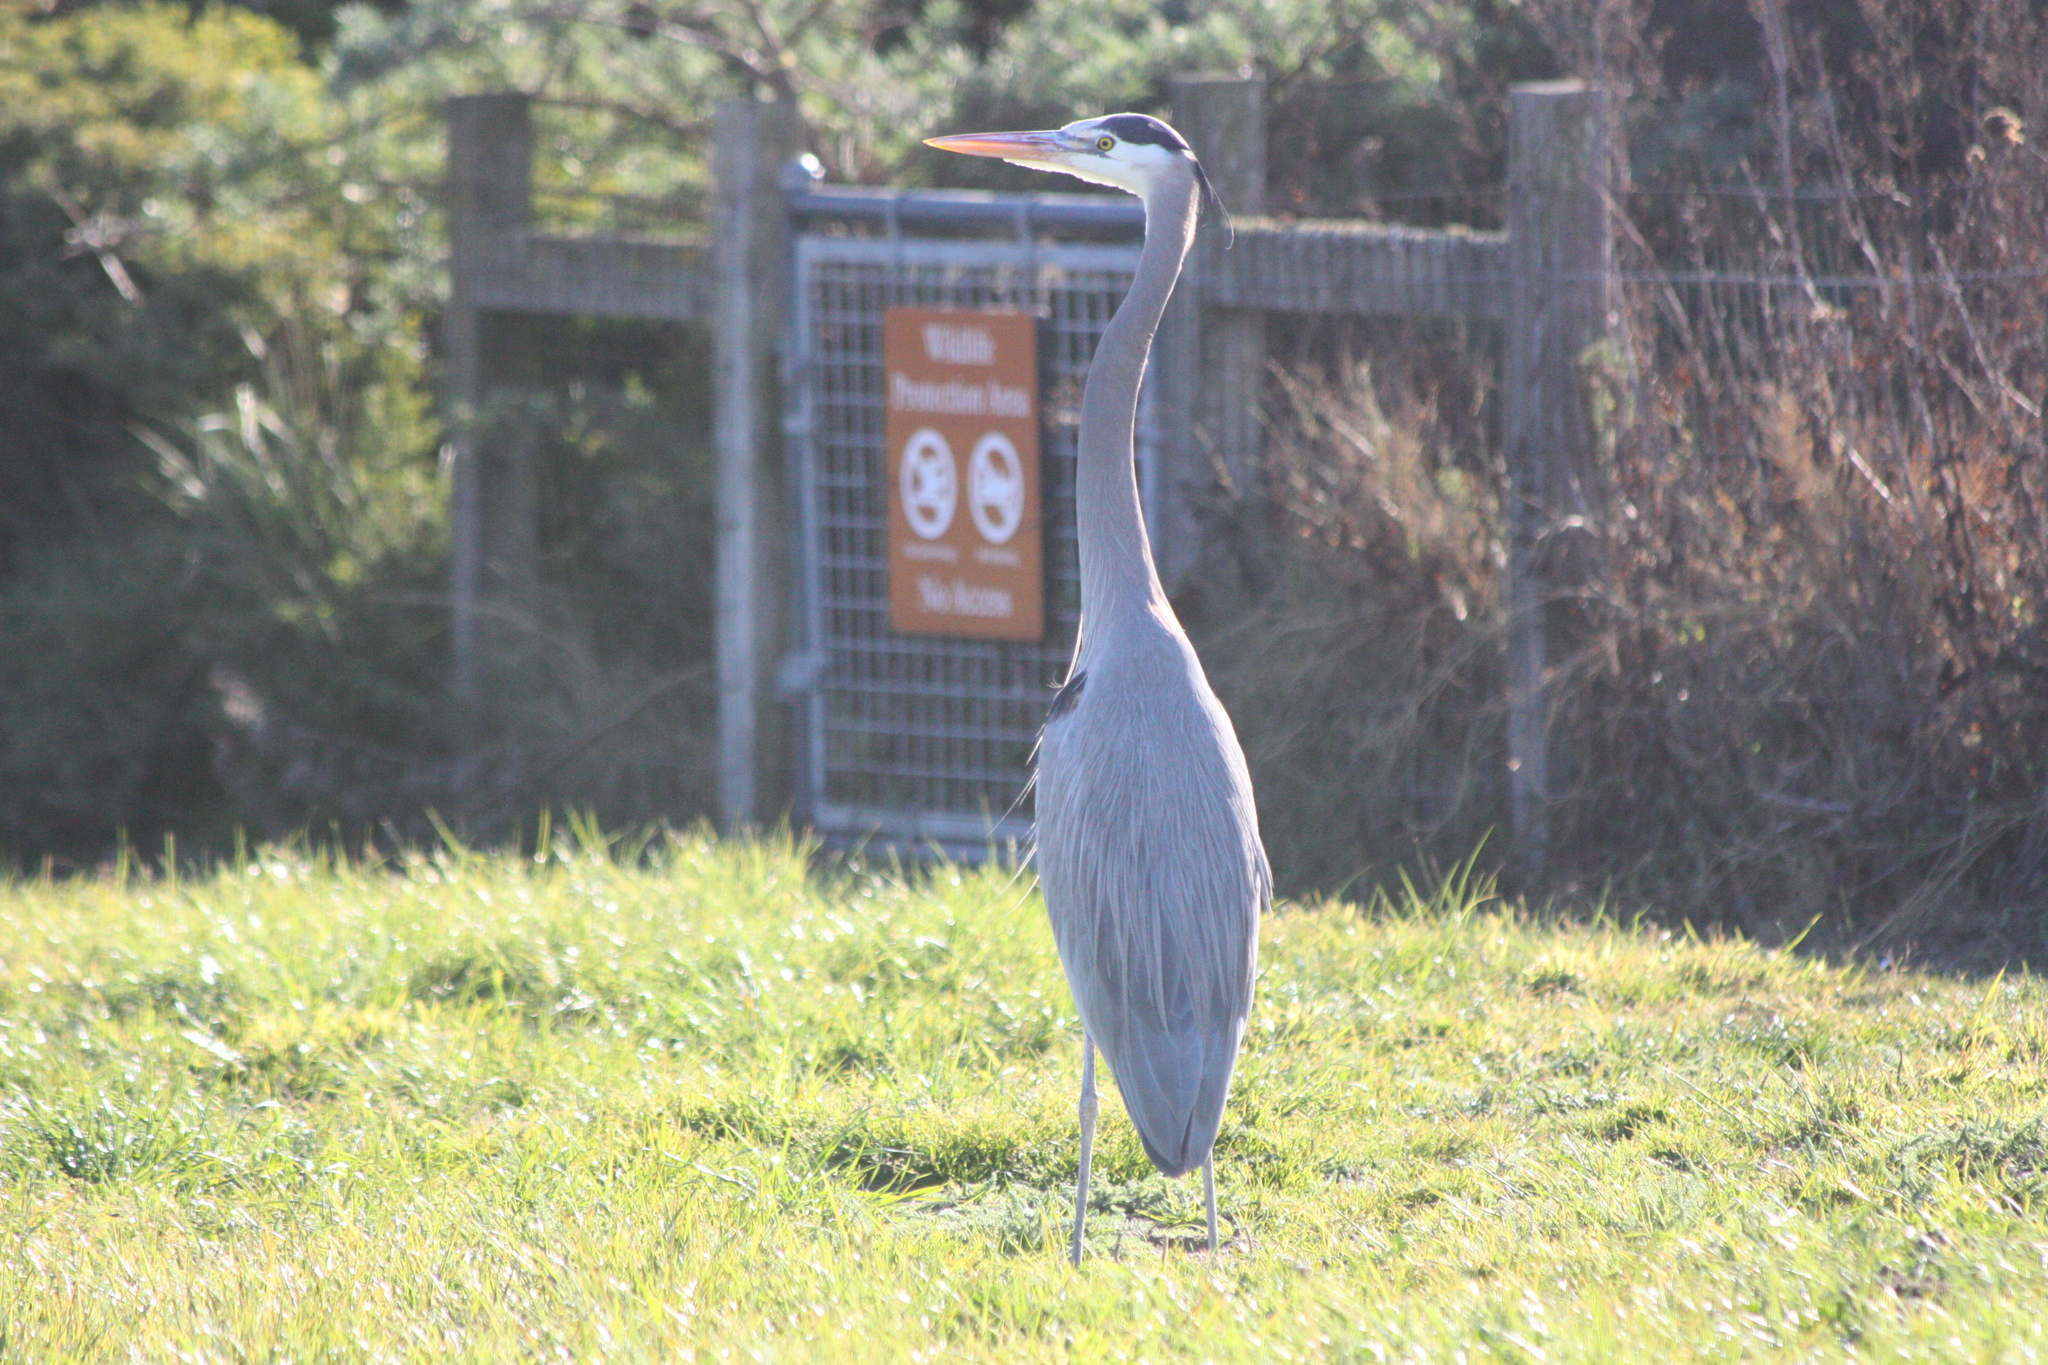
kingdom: Animalia
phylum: Chordata
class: Aves
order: Pelecaniformes
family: Ardeidae
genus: Ardea
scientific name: Ardea herodias
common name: Great blue heron
